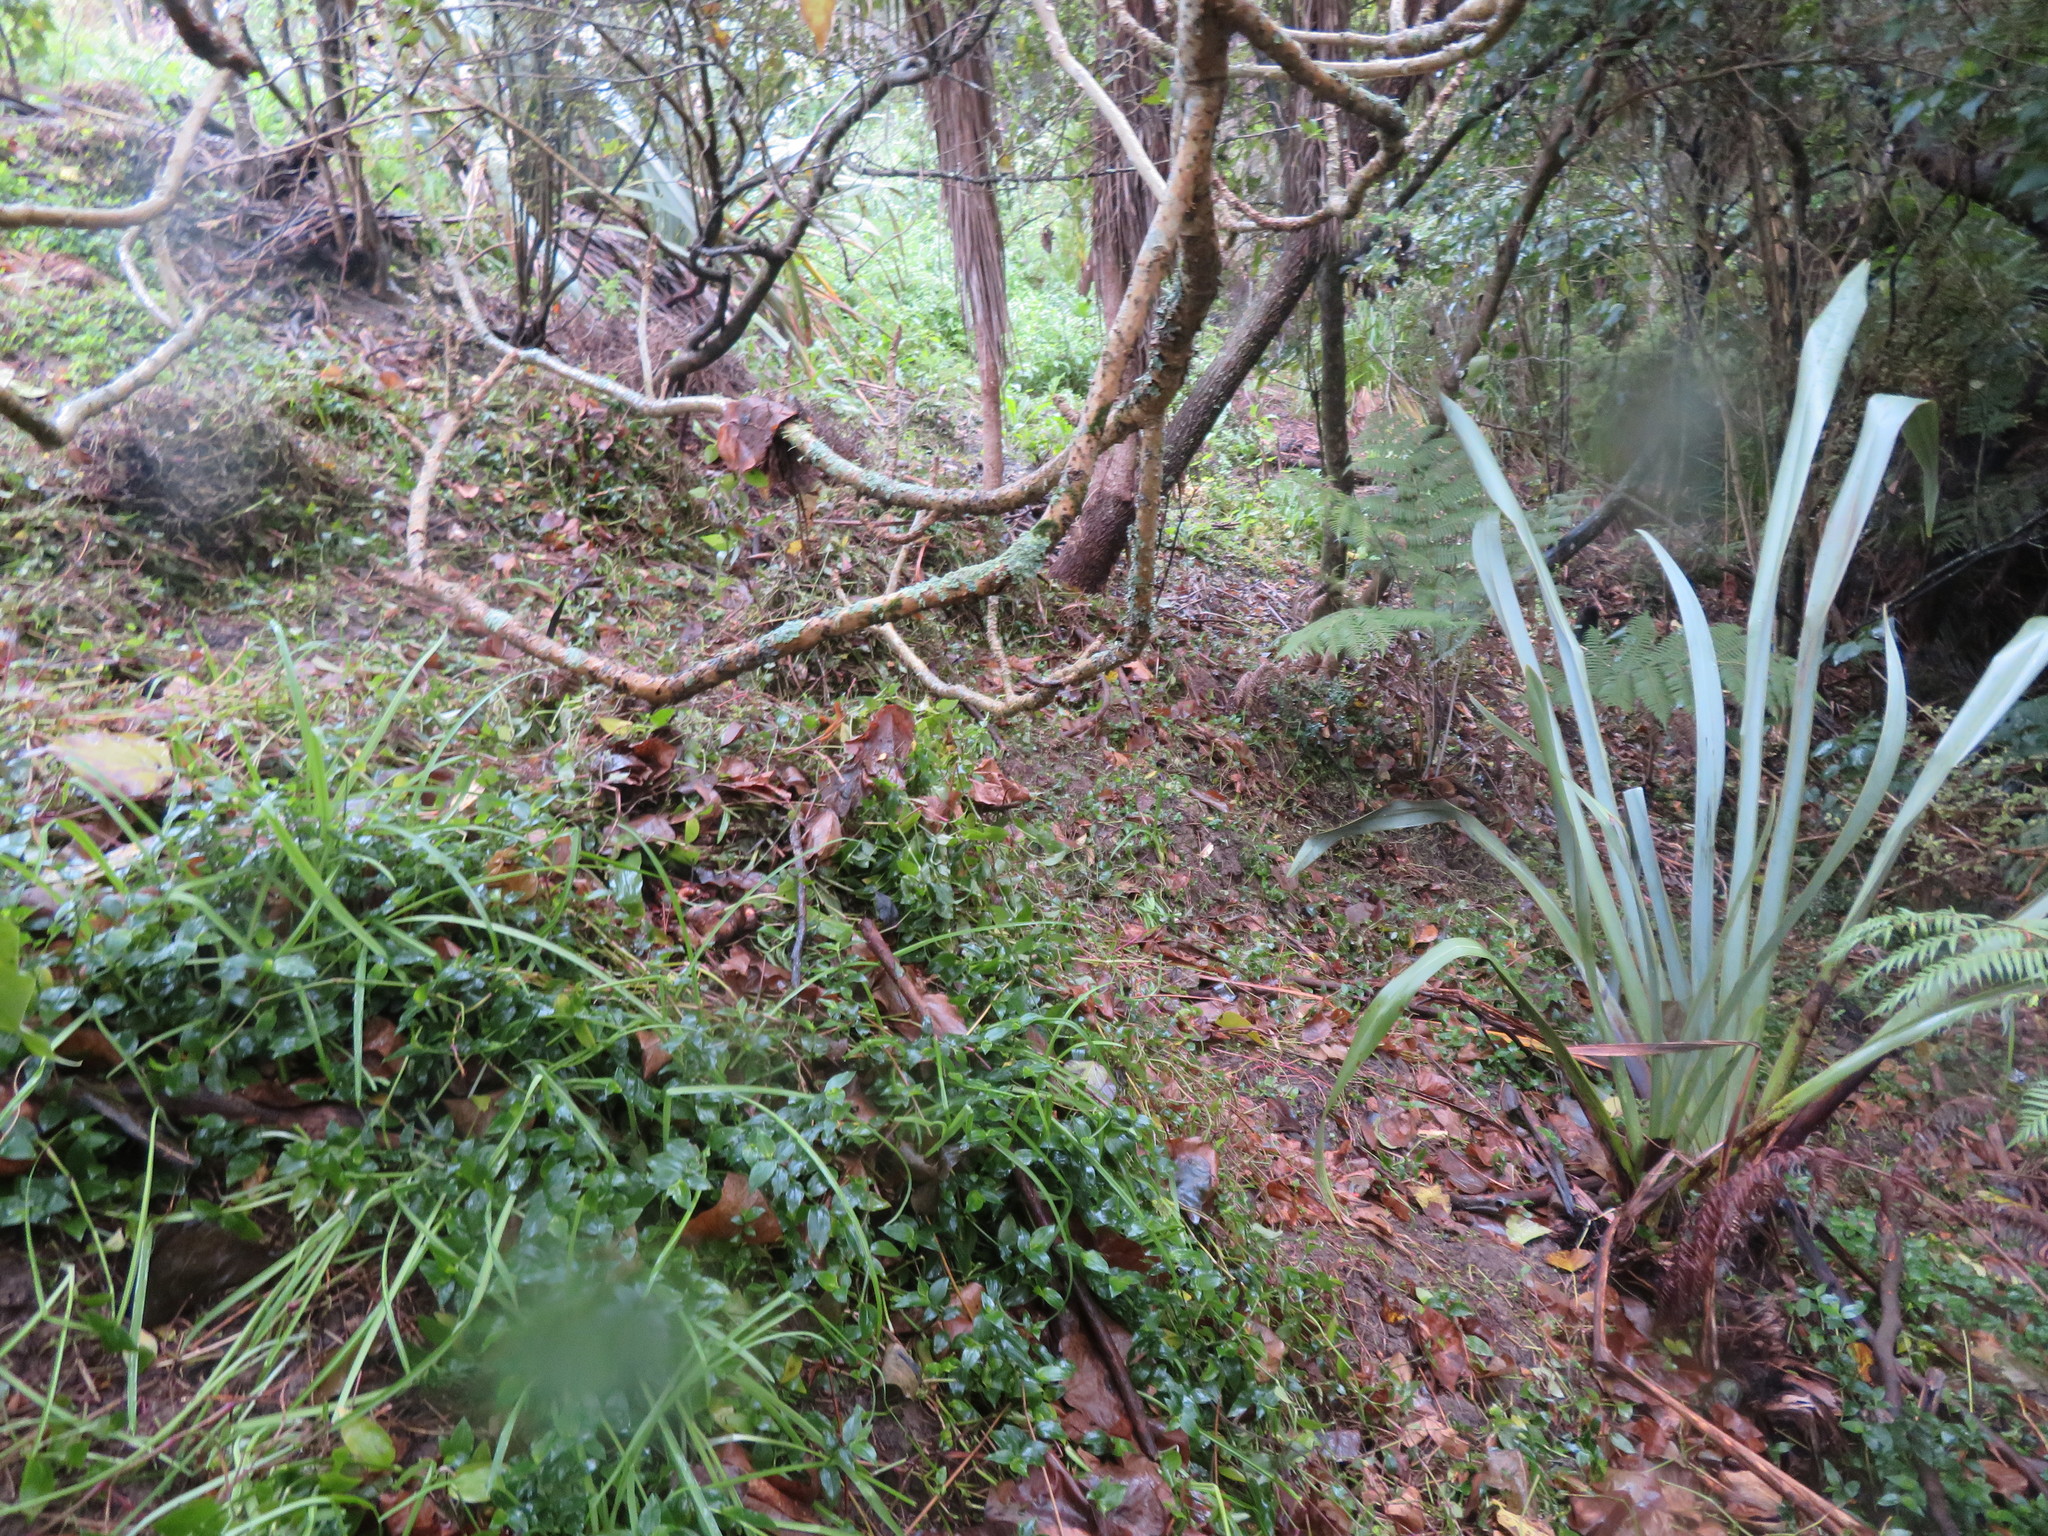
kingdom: Plantae
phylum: Tracheophyta
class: Liliopsida
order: Commelinales
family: Commelinaceae
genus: Tradescantia
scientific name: Tradescantia fluminensis
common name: Wandering-jew
